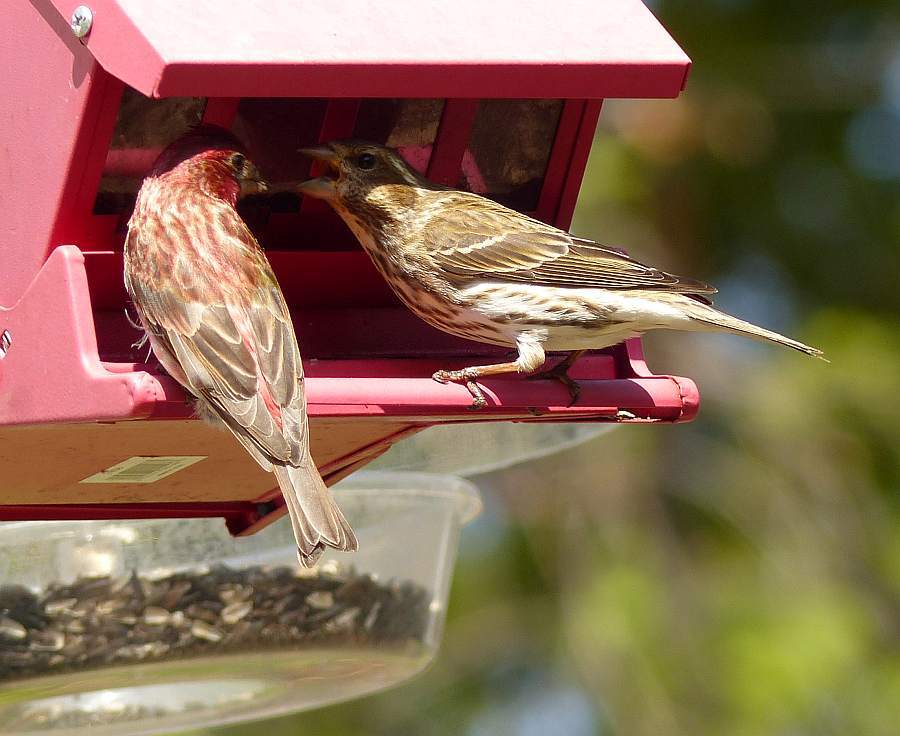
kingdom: Animalia
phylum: Chordata
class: Aves
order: Passeriformes
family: Fringillidae
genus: Haemorhous
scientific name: Haemorhous purpureus
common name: Purple finch
